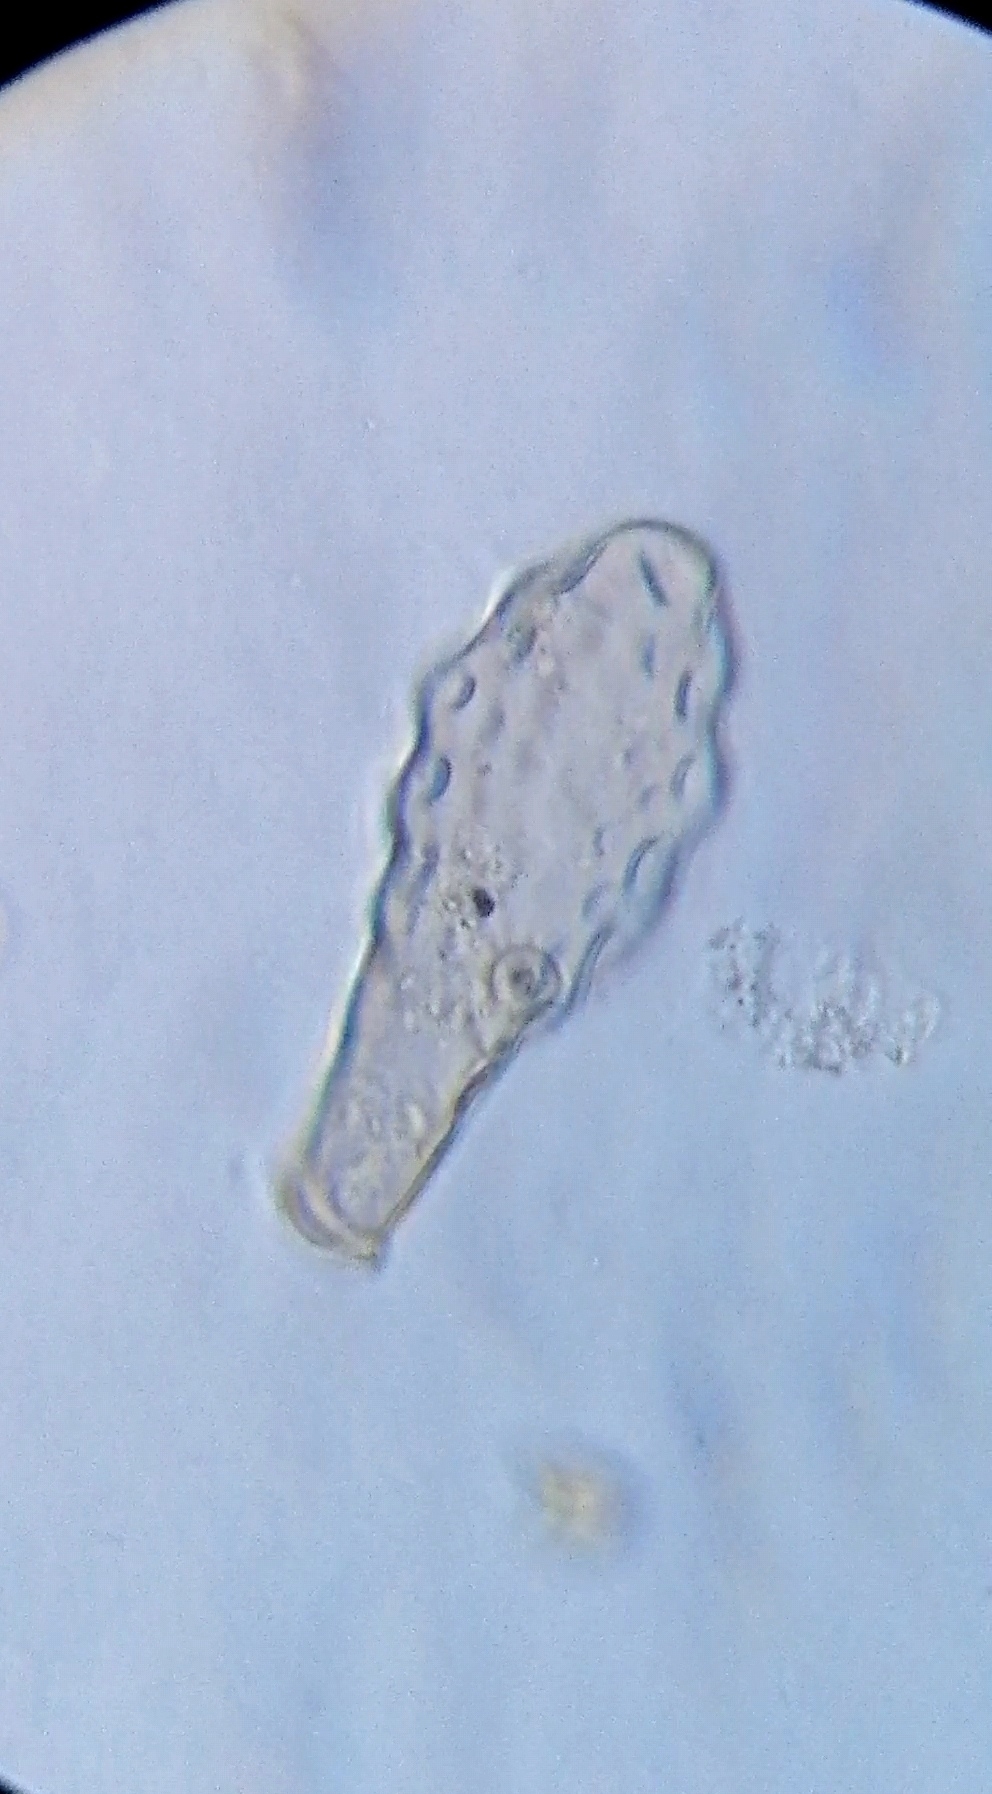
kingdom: Protozoa
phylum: Amoebozoa
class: Lobosa
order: Arcellinida
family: Hyalospheniidae
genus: Hyalosphenia
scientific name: Hyalosphenia elegans
